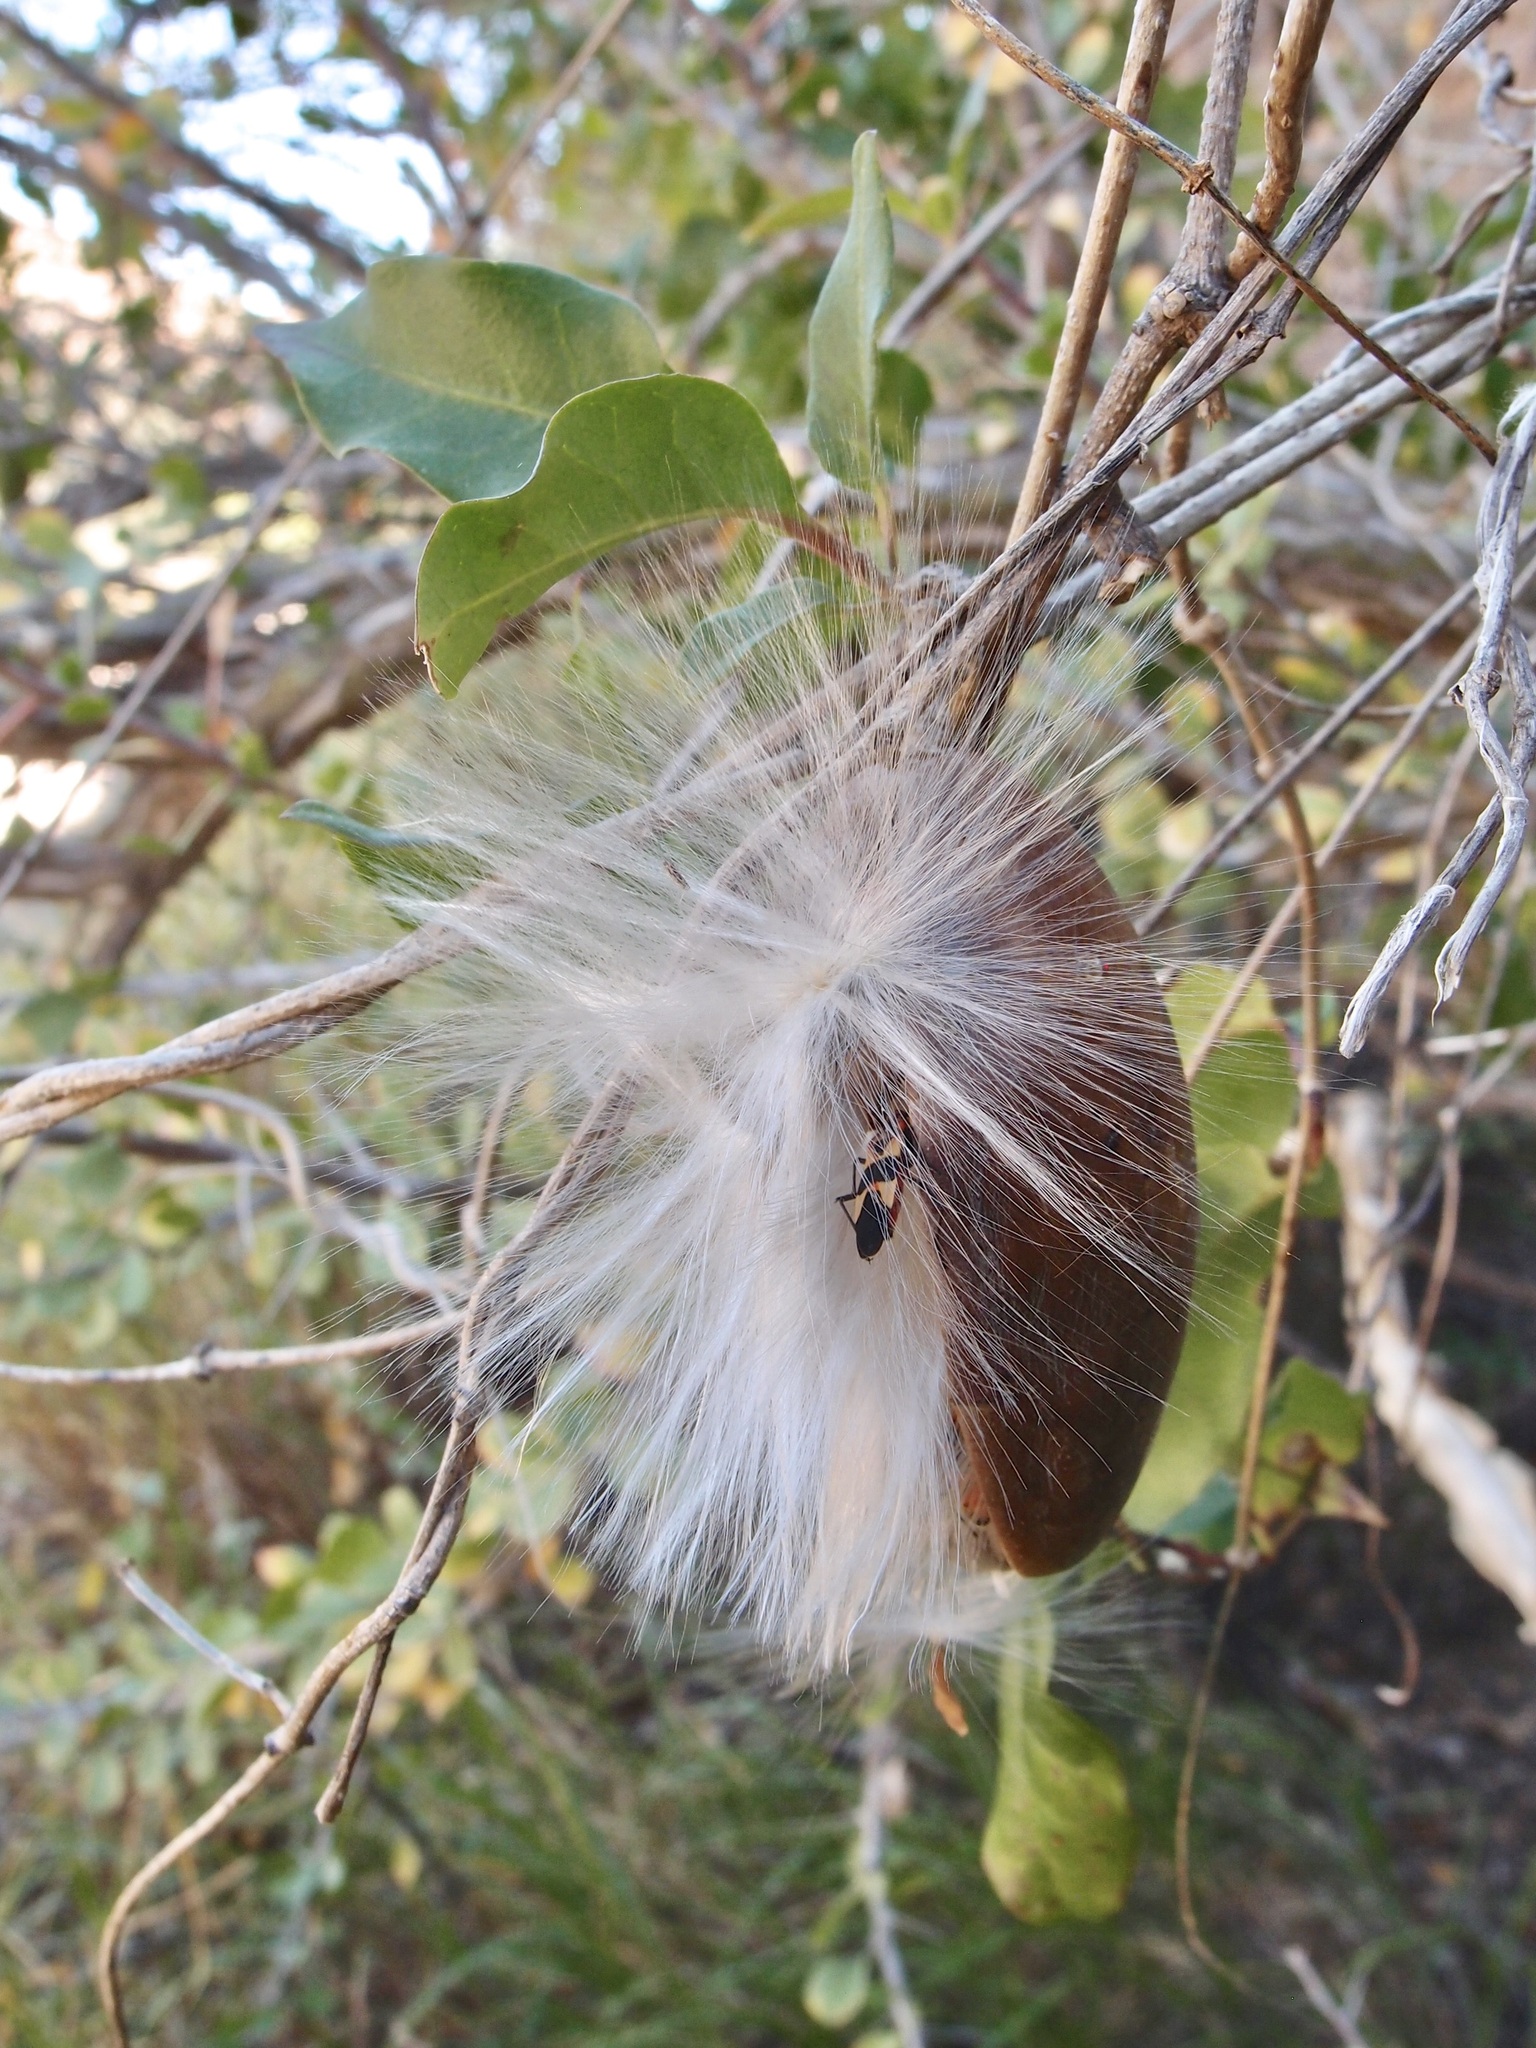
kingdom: Plantae
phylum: Tracheophyta
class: Magnoliopsida
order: Gentianales
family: Apocynaceae
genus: Ruehssia
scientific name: Ruehssia edulis
